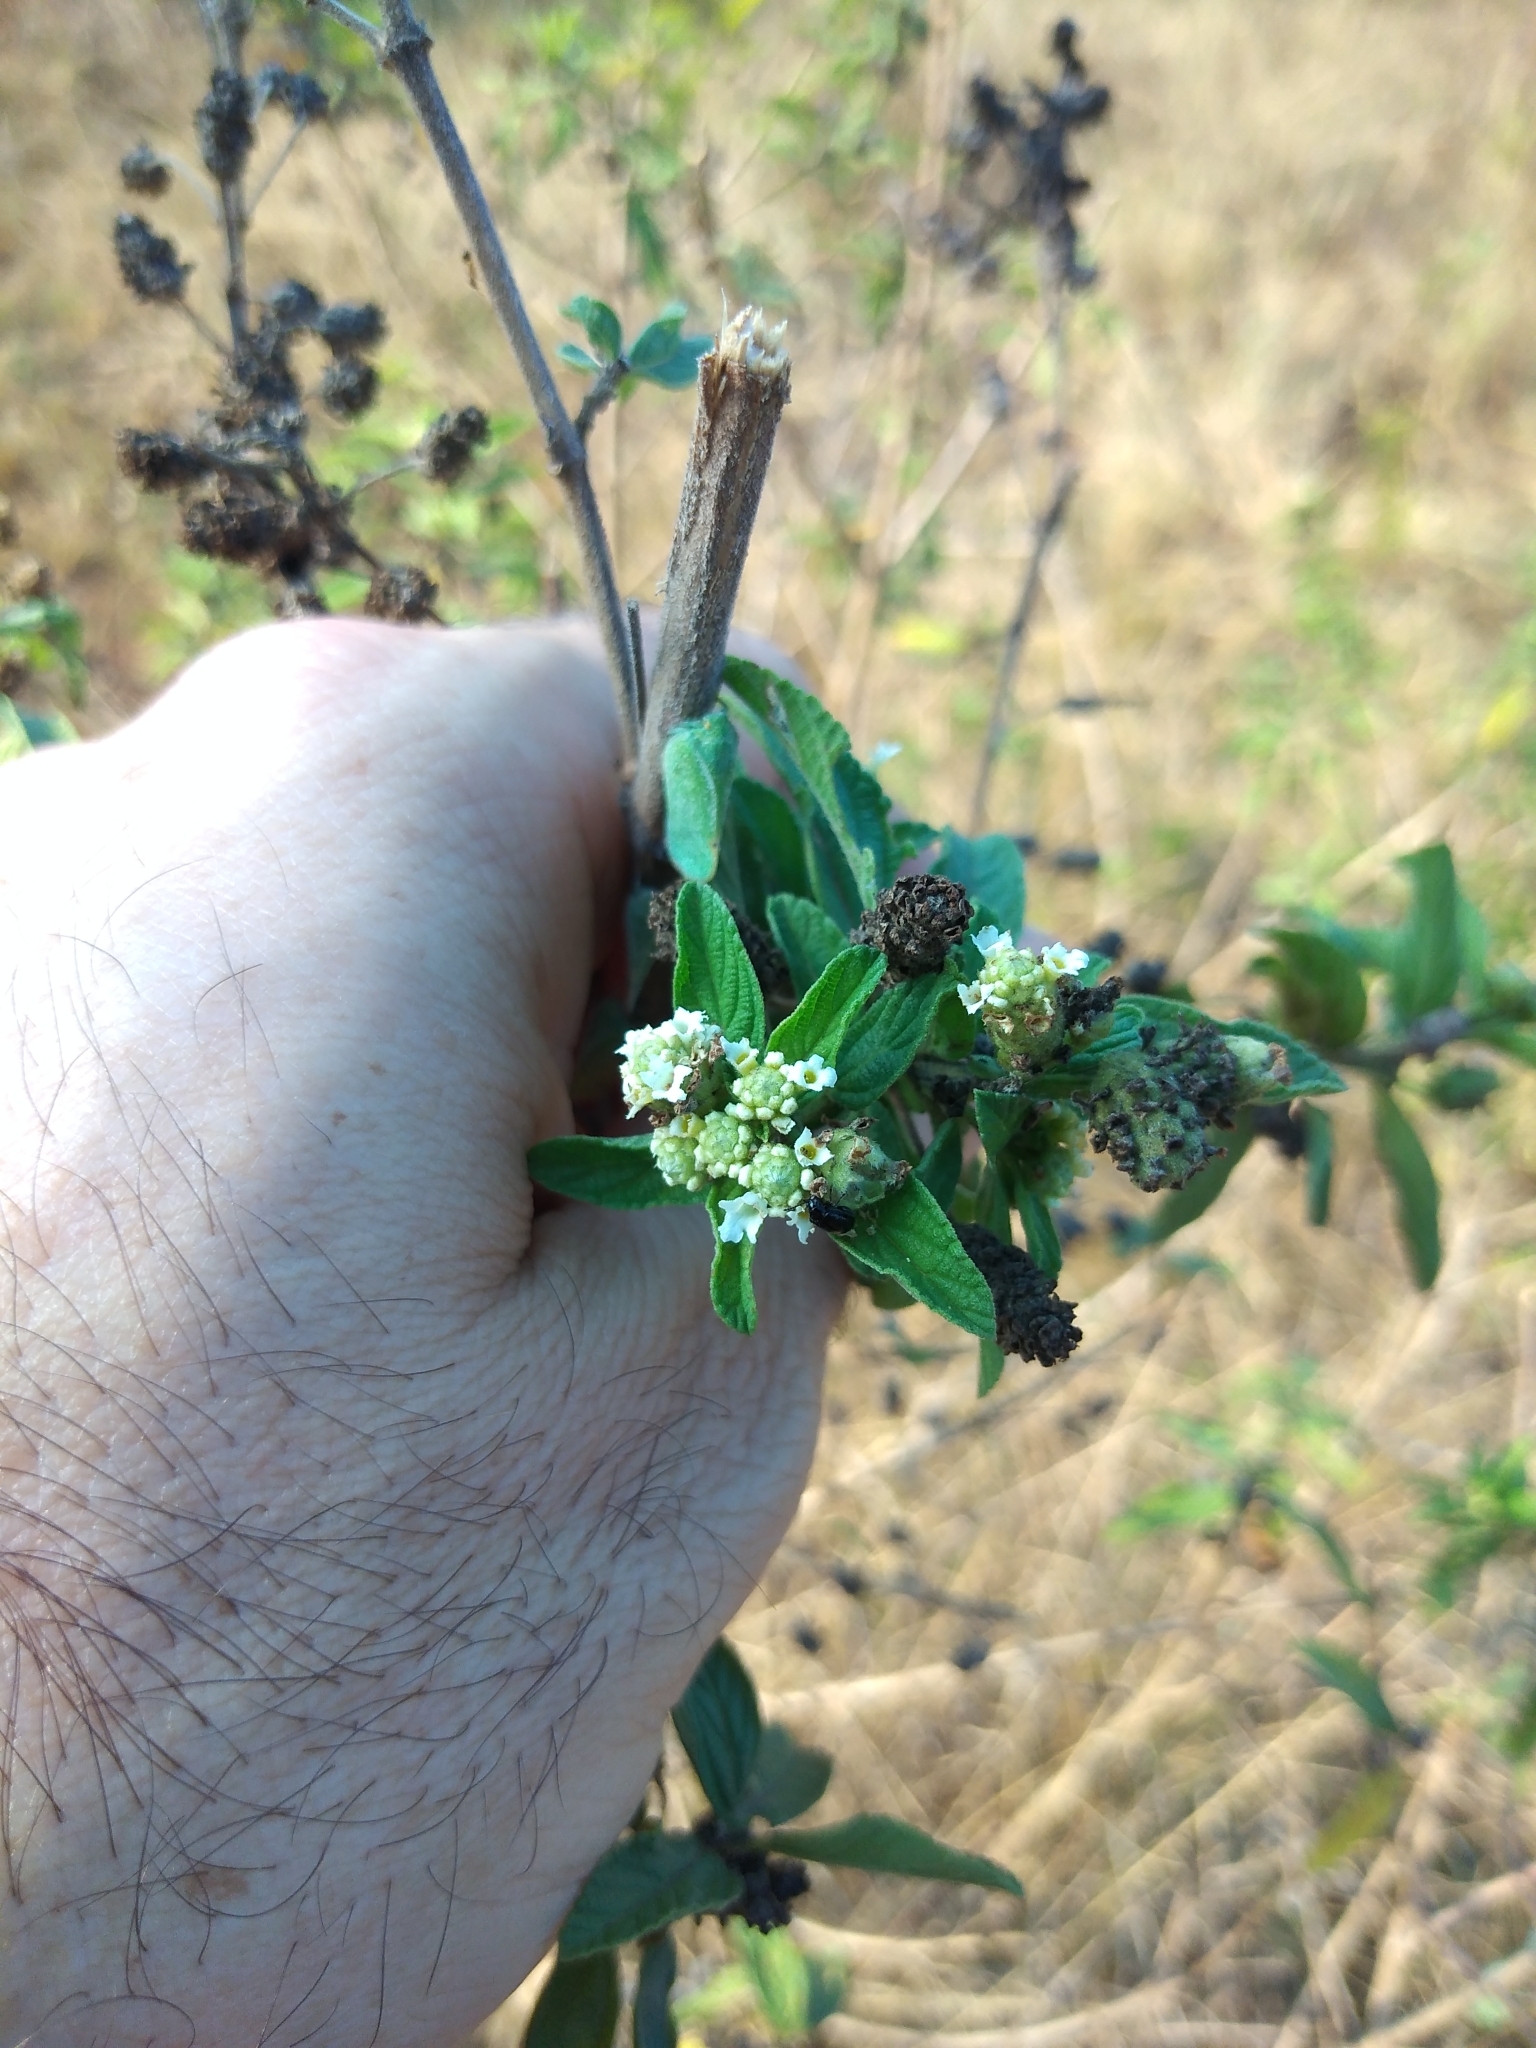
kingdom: Plantae
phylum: Tracheophyta
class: Magnoliopsida
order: Lamiales
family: Verbenaceae
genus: Lippia
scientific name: Lippia javanica
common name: Lemonbush
